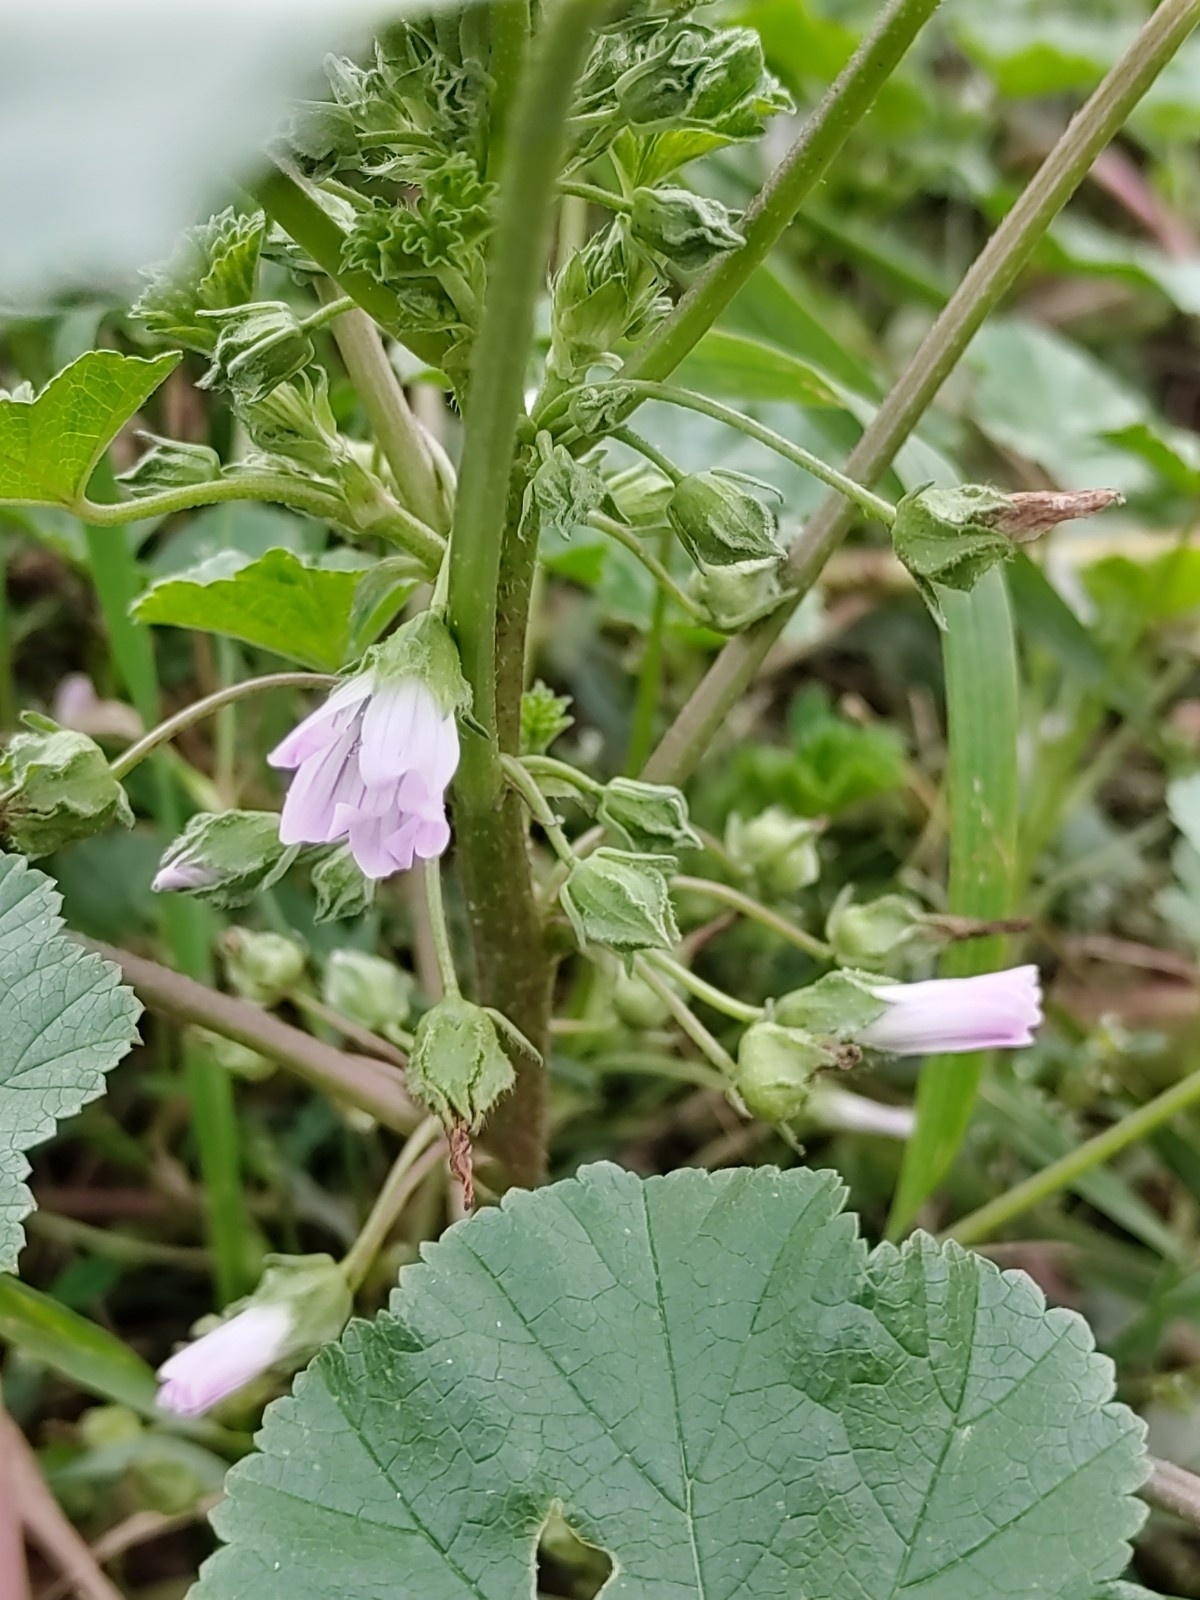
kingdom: Plantae
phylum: Tracheophyta
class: Magnoliopsida
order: Malvales
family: Malvaceae
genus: Malva
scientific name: Malva neglecta
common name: Common mallow
